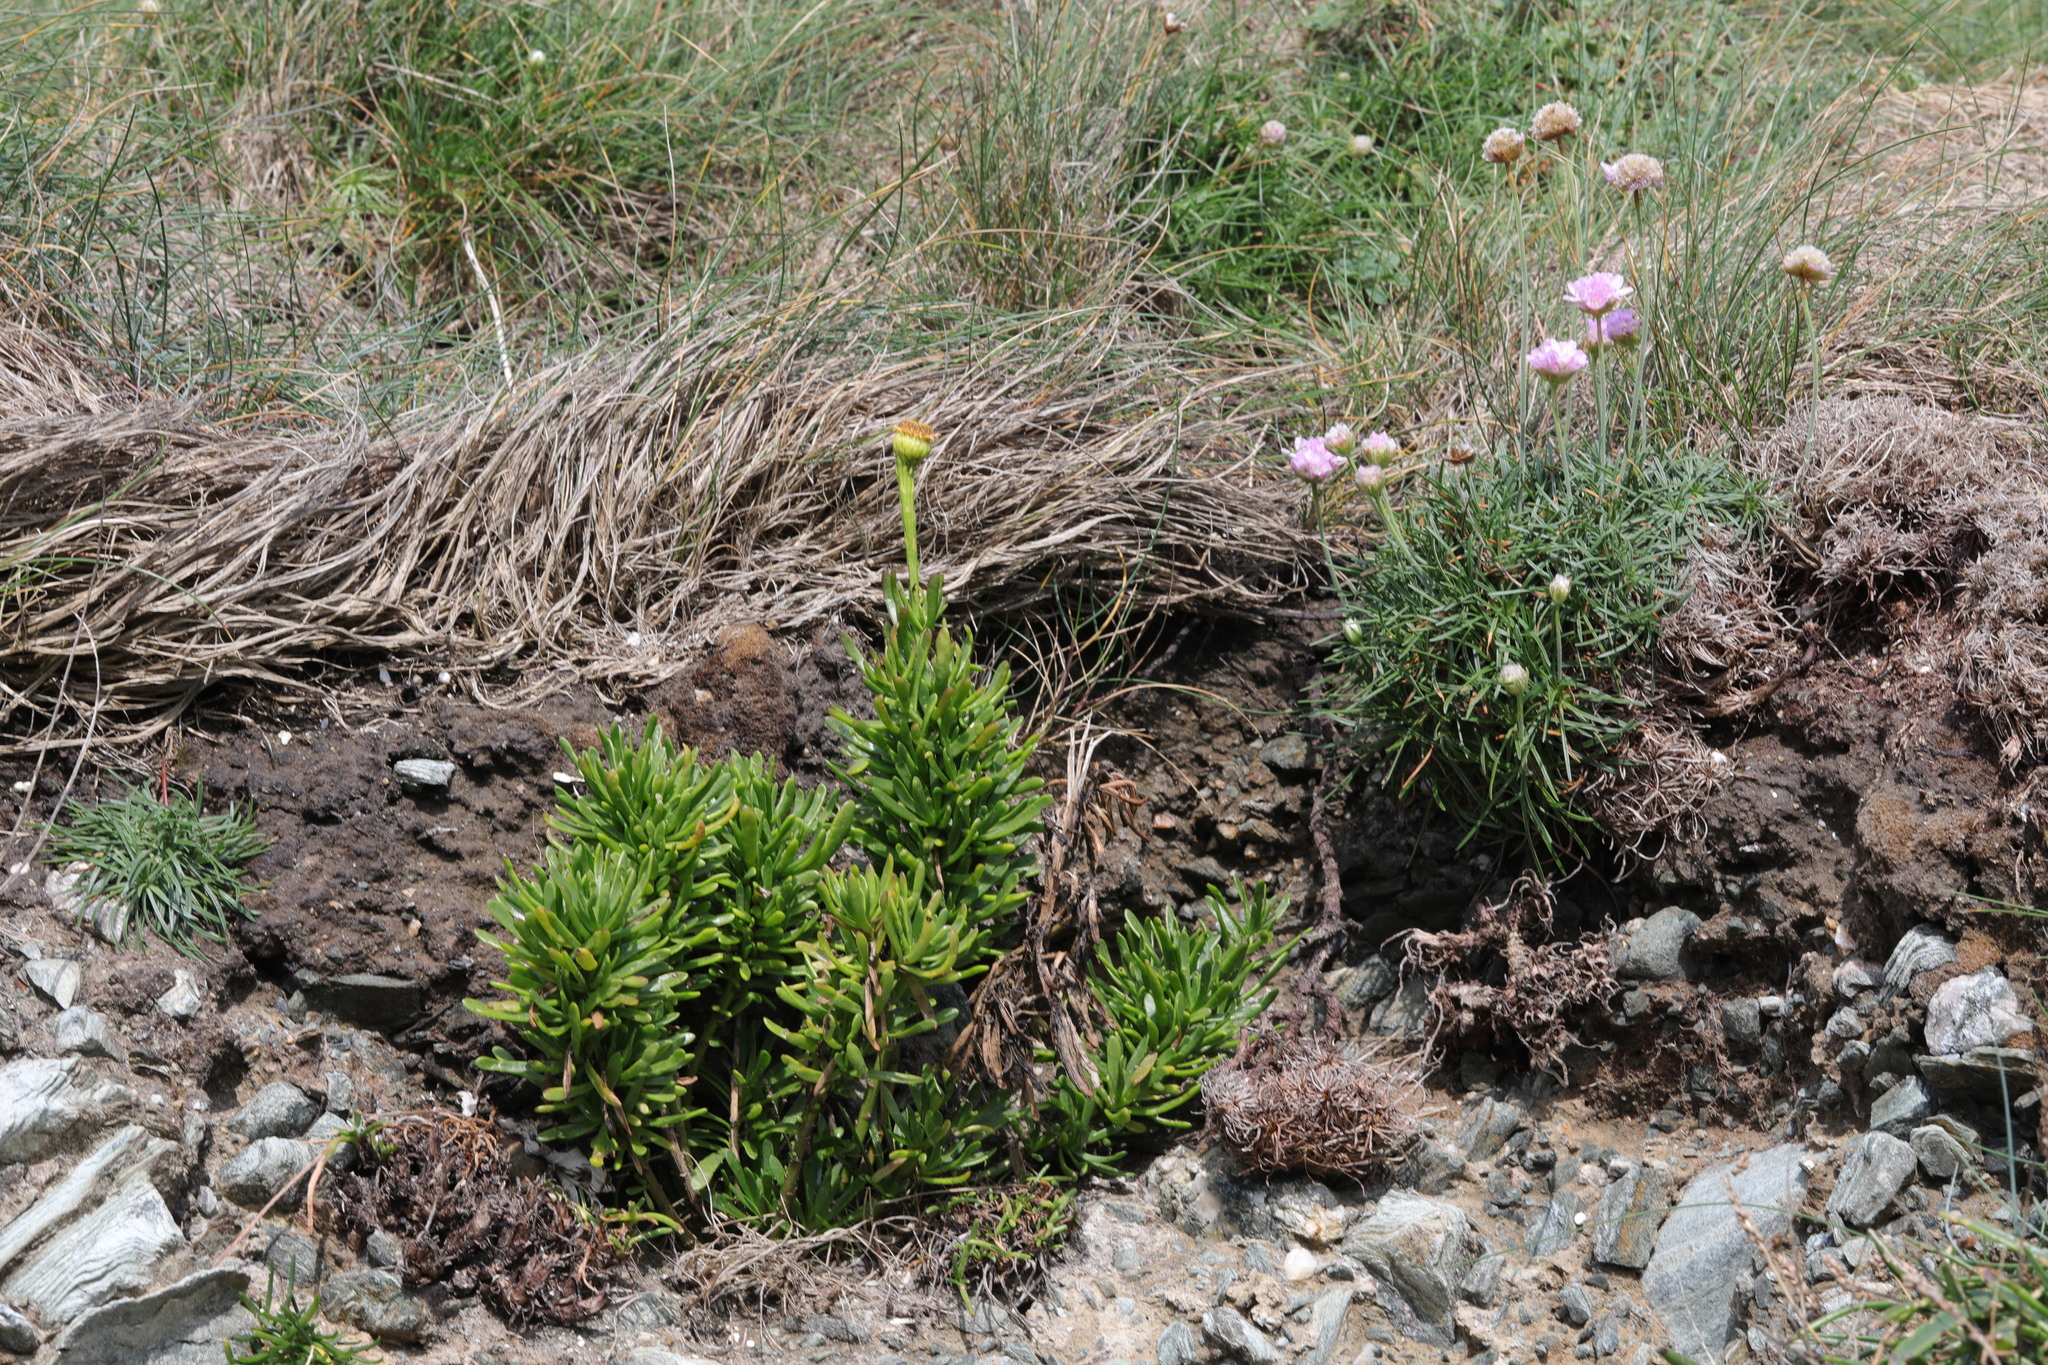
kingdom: Plantae
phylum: Tracheophyta
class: Magnoliopsida
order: Asterales
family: Asteraceae
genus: Limbarda
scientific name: Limbarda crithmoides
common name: Golden samphire
